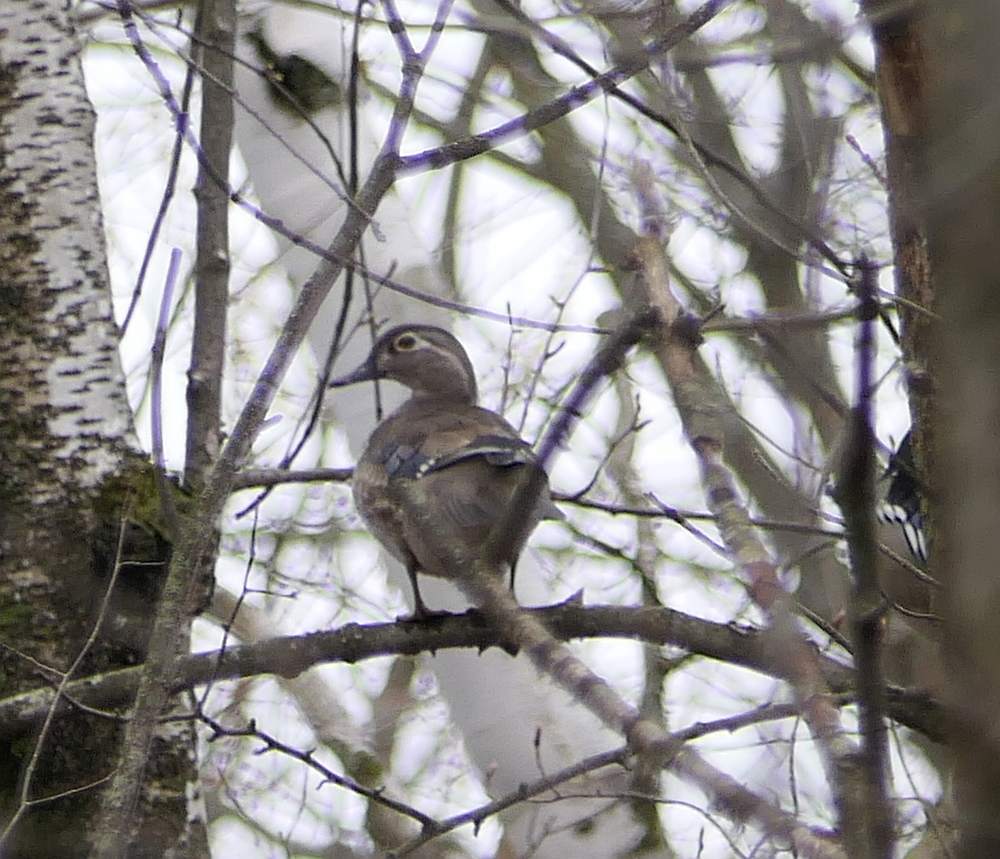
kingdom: Animalia
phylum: Chordata
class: Aves
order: Anseriformes
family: Anatidae
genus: Aix
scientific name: Aix sponsa
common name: Wood duck
